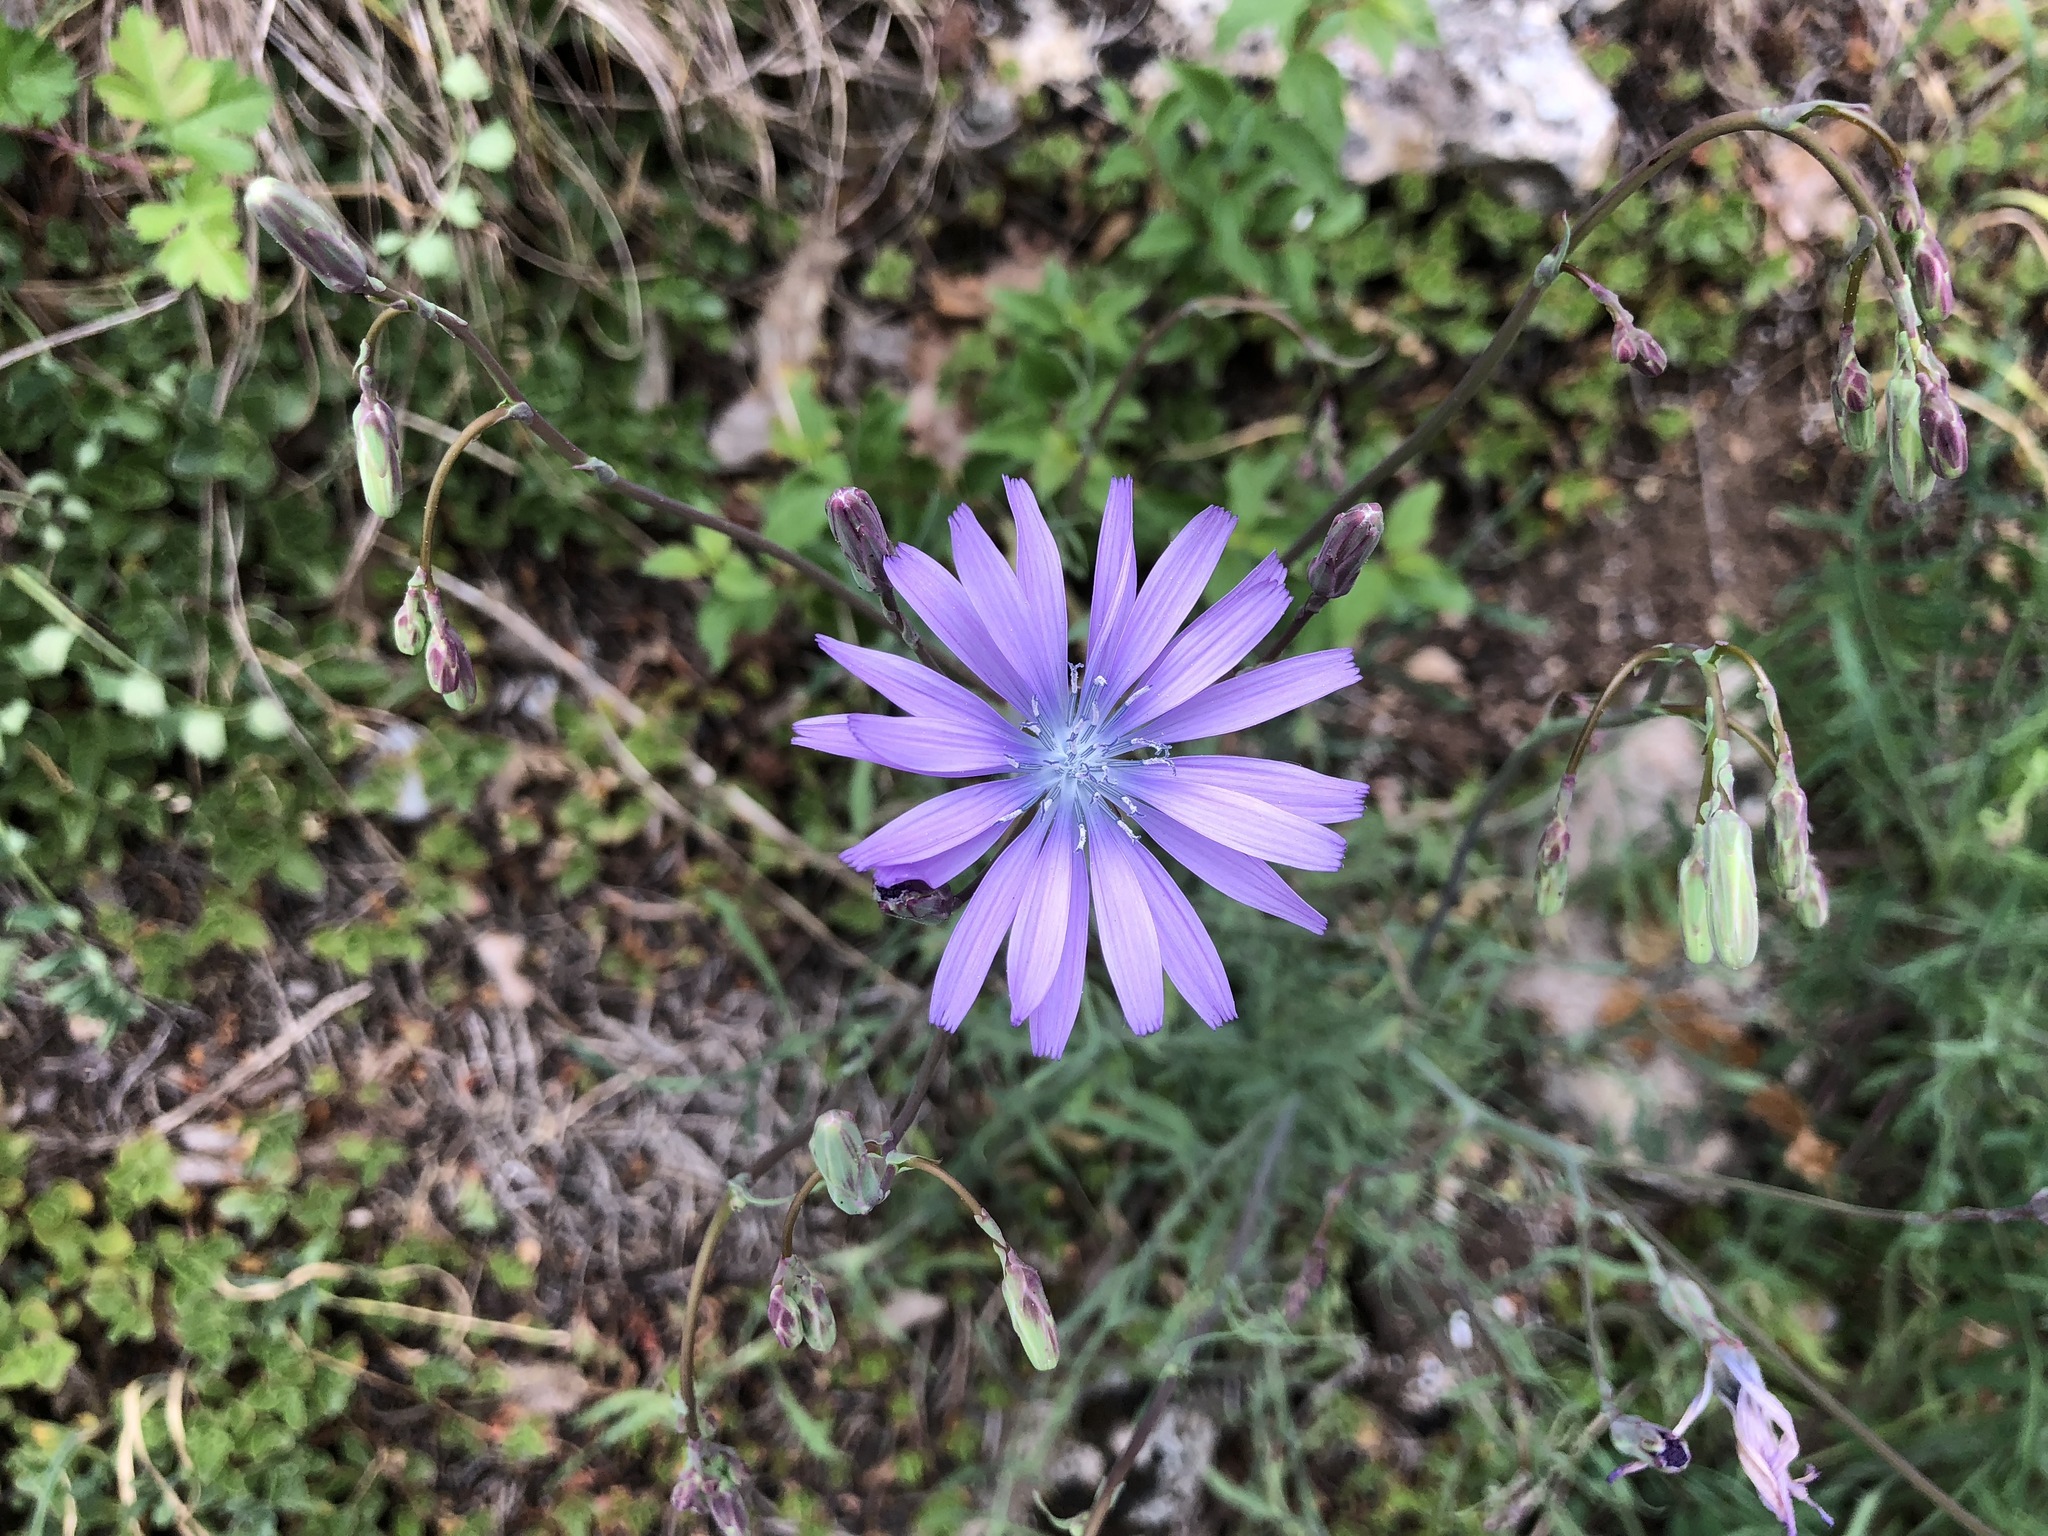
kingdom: Plantae
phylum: Tracheophyta
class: Magnoliopsida
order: Asterales
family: Asteraceae
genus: Lactuca
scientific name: Lactuca perennis
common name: Mountain lettuce
